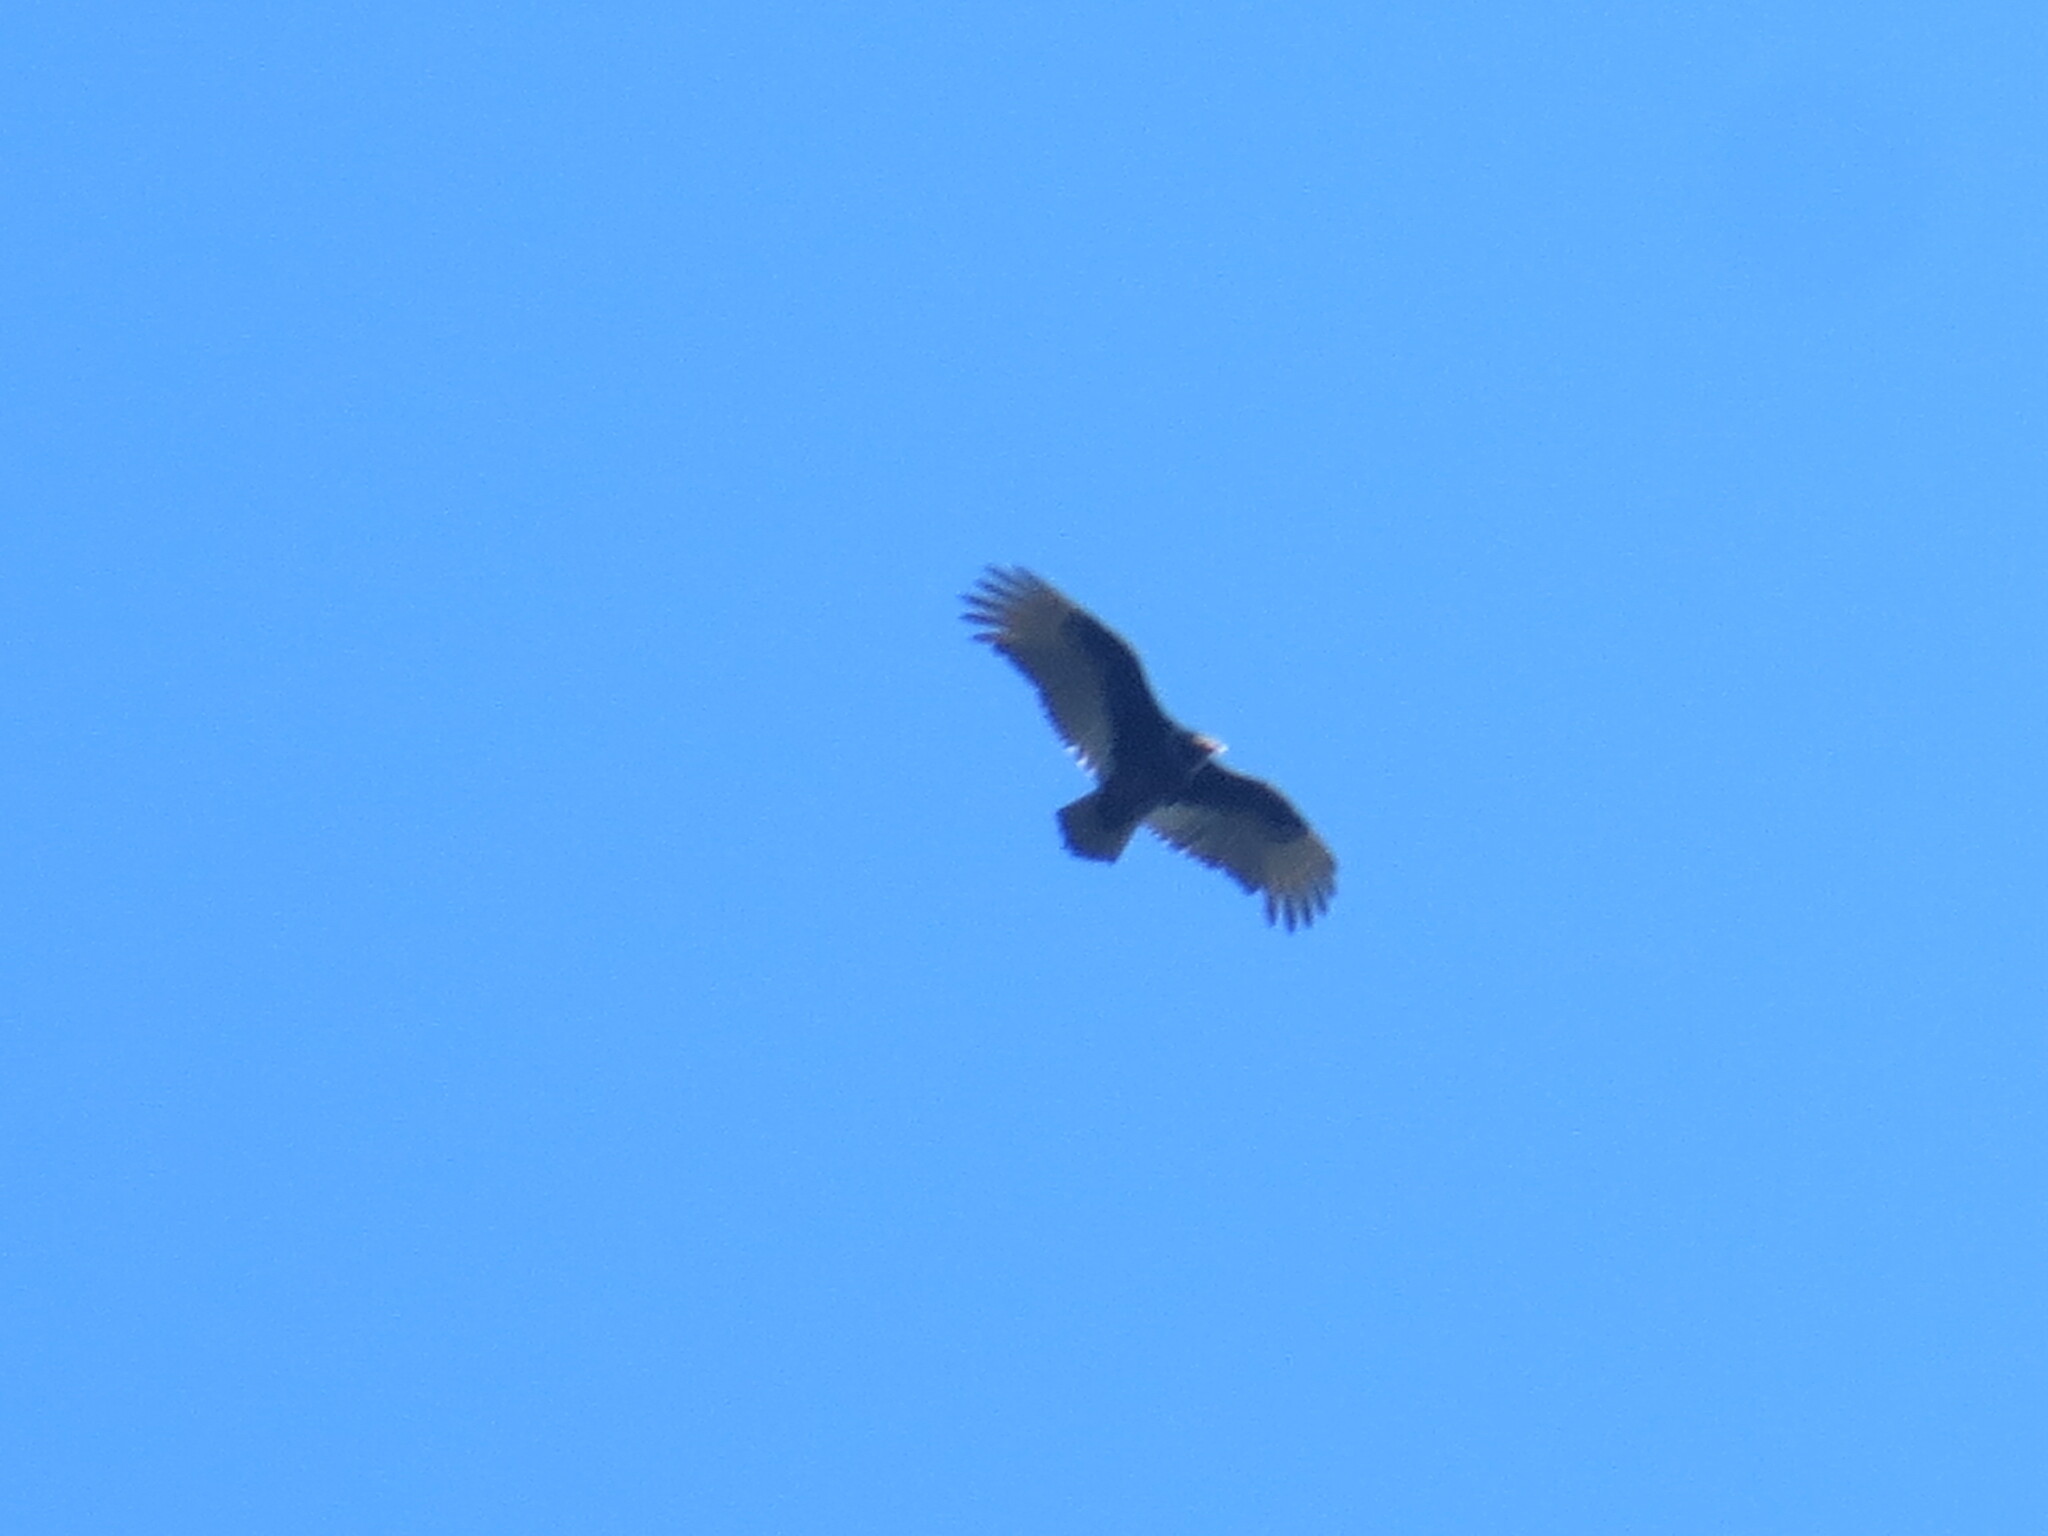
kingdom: Animalia
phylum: Chordata
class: Aves
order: Accipitriformes
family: Cathartidae
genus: Cathartes
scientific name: Cathartes aura
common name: Turkey vulture
